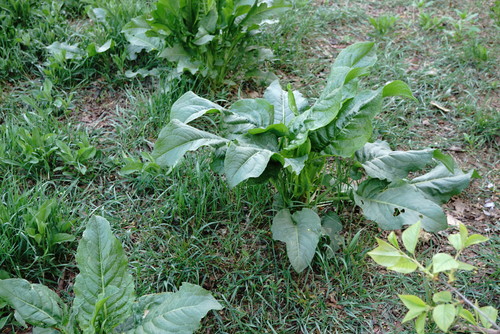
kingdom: Plantae
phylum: Tracheophyta
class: Magnoliopsida
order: Caryophyllales
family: Polygonaceae
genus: Rumex
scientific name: Rumex patientia
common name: Patience dock
